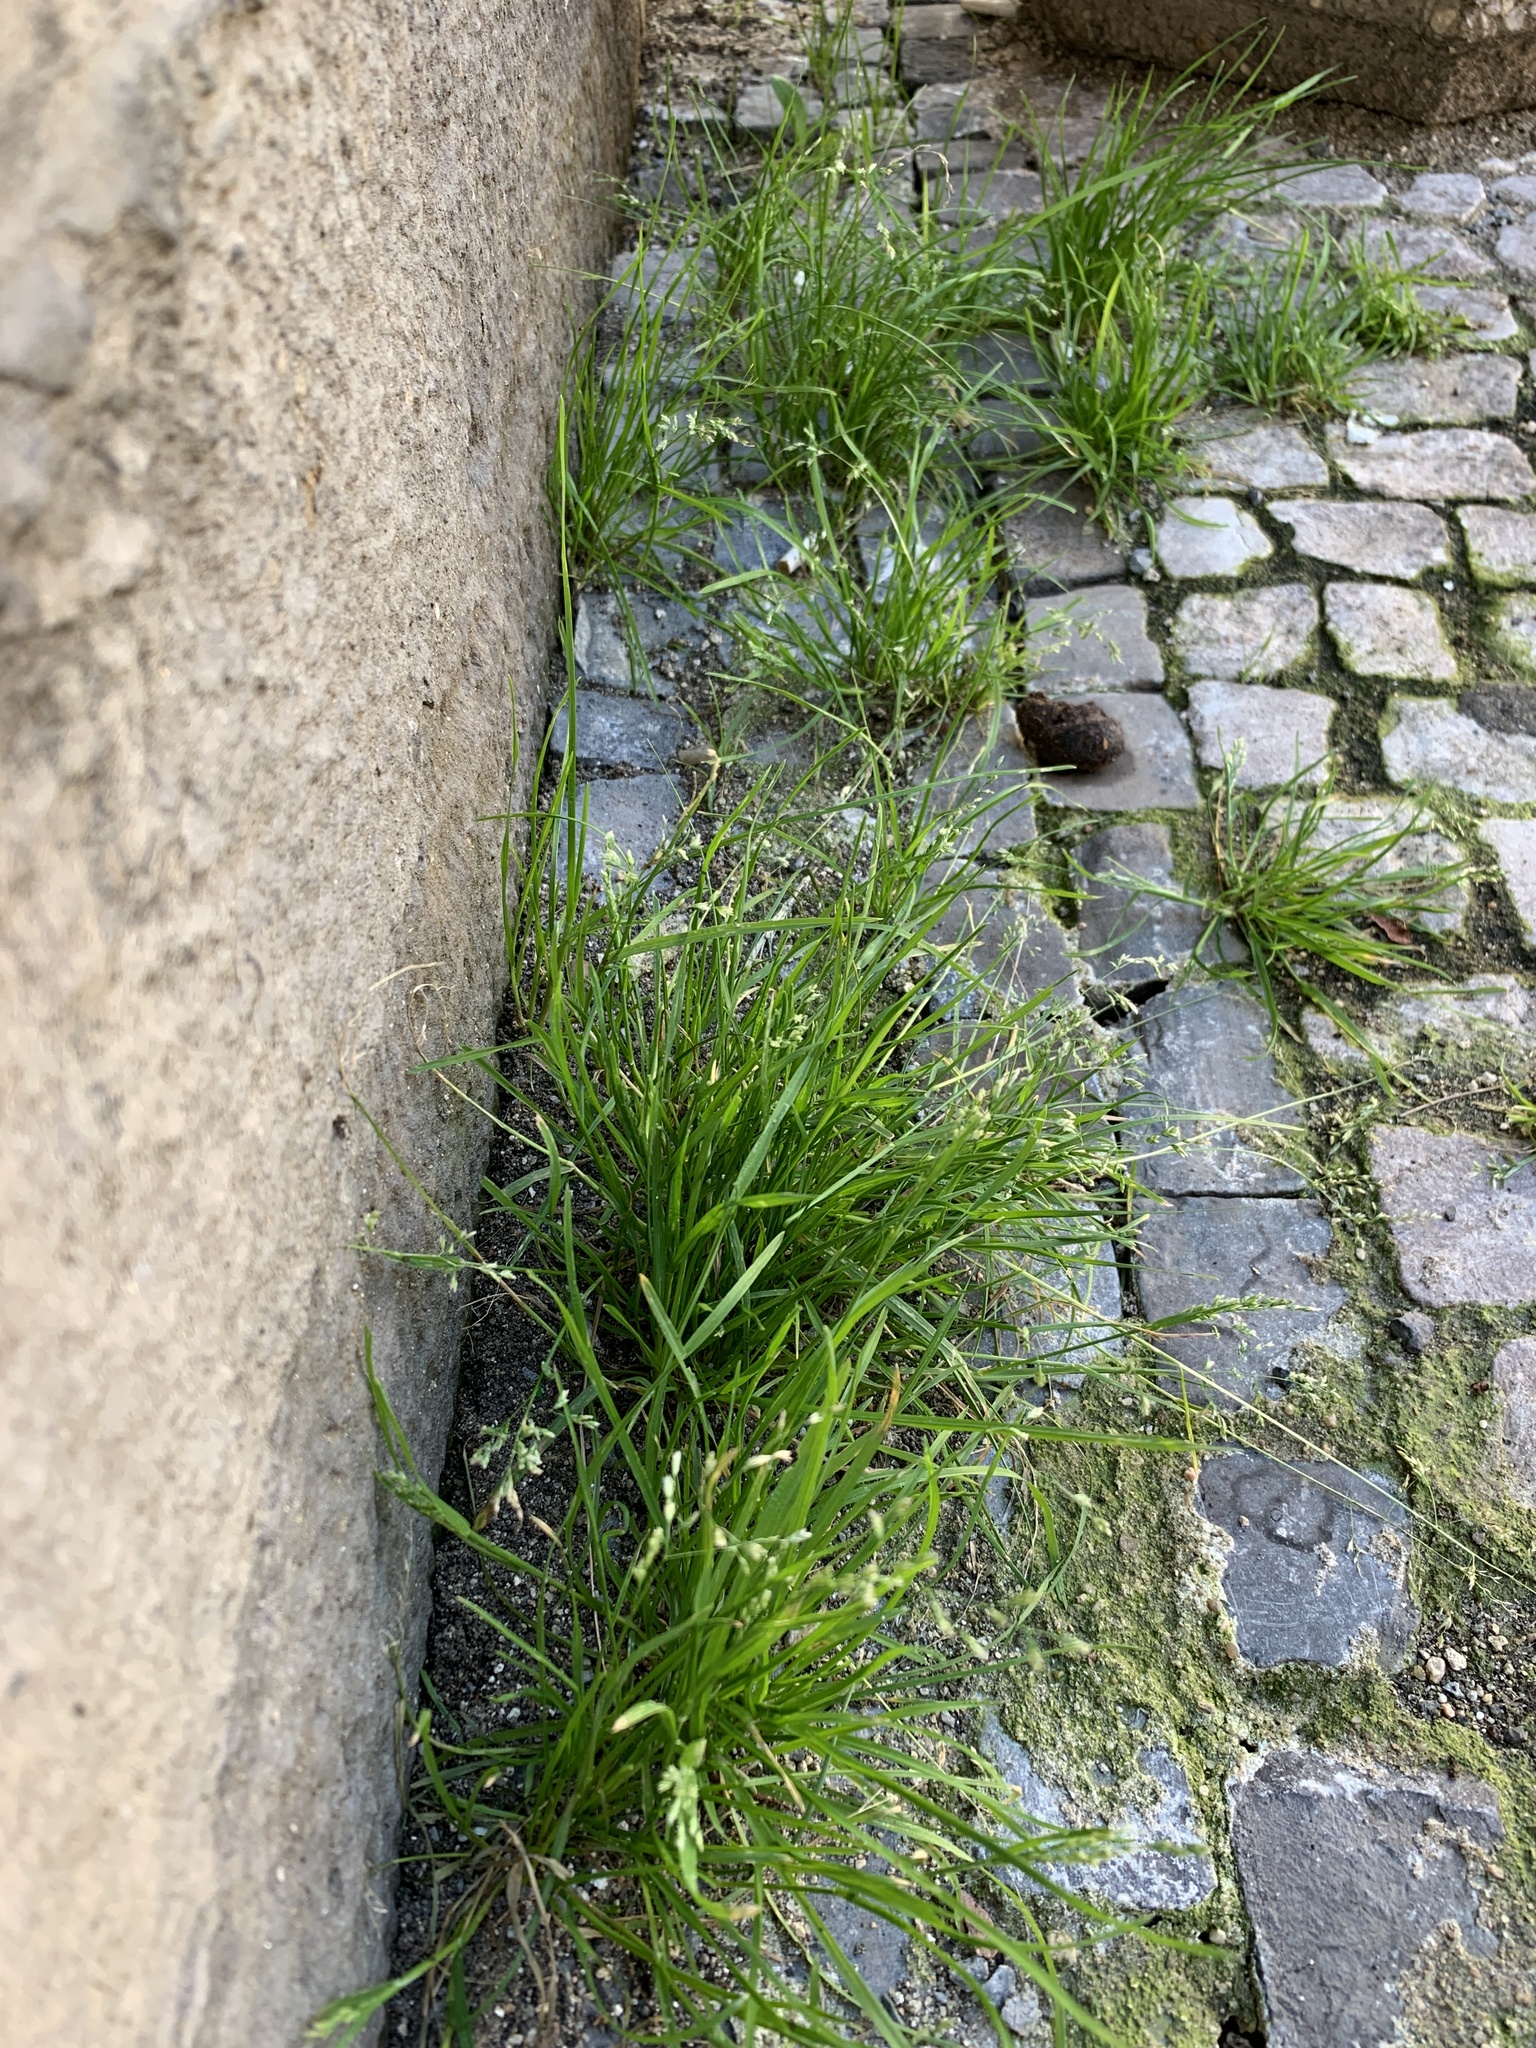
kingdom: Plantae
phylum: Tracheophyta
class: Liliopsida
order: Poales
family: Poaceae
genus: Poa
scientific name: Poa annua
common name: Annual bluegrass
